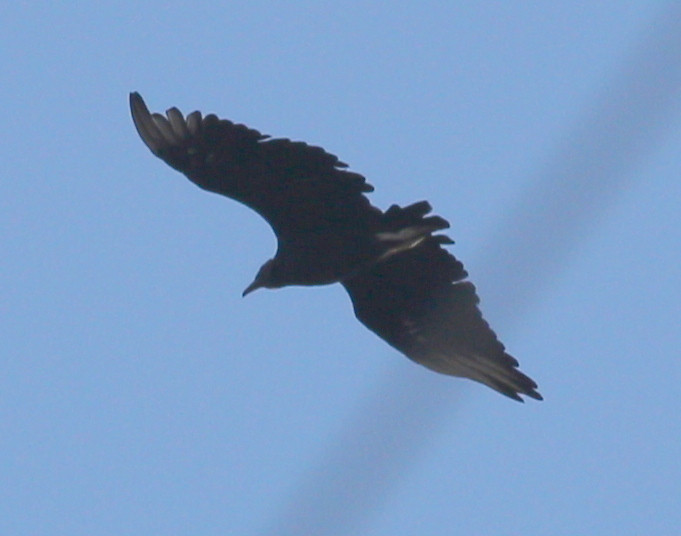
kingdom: Animalia
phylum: Chordata
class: Aves
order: Accipitriformes
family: Cathartidae
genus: Coragyps
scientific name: Coragyps atratus
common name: Black vulture
